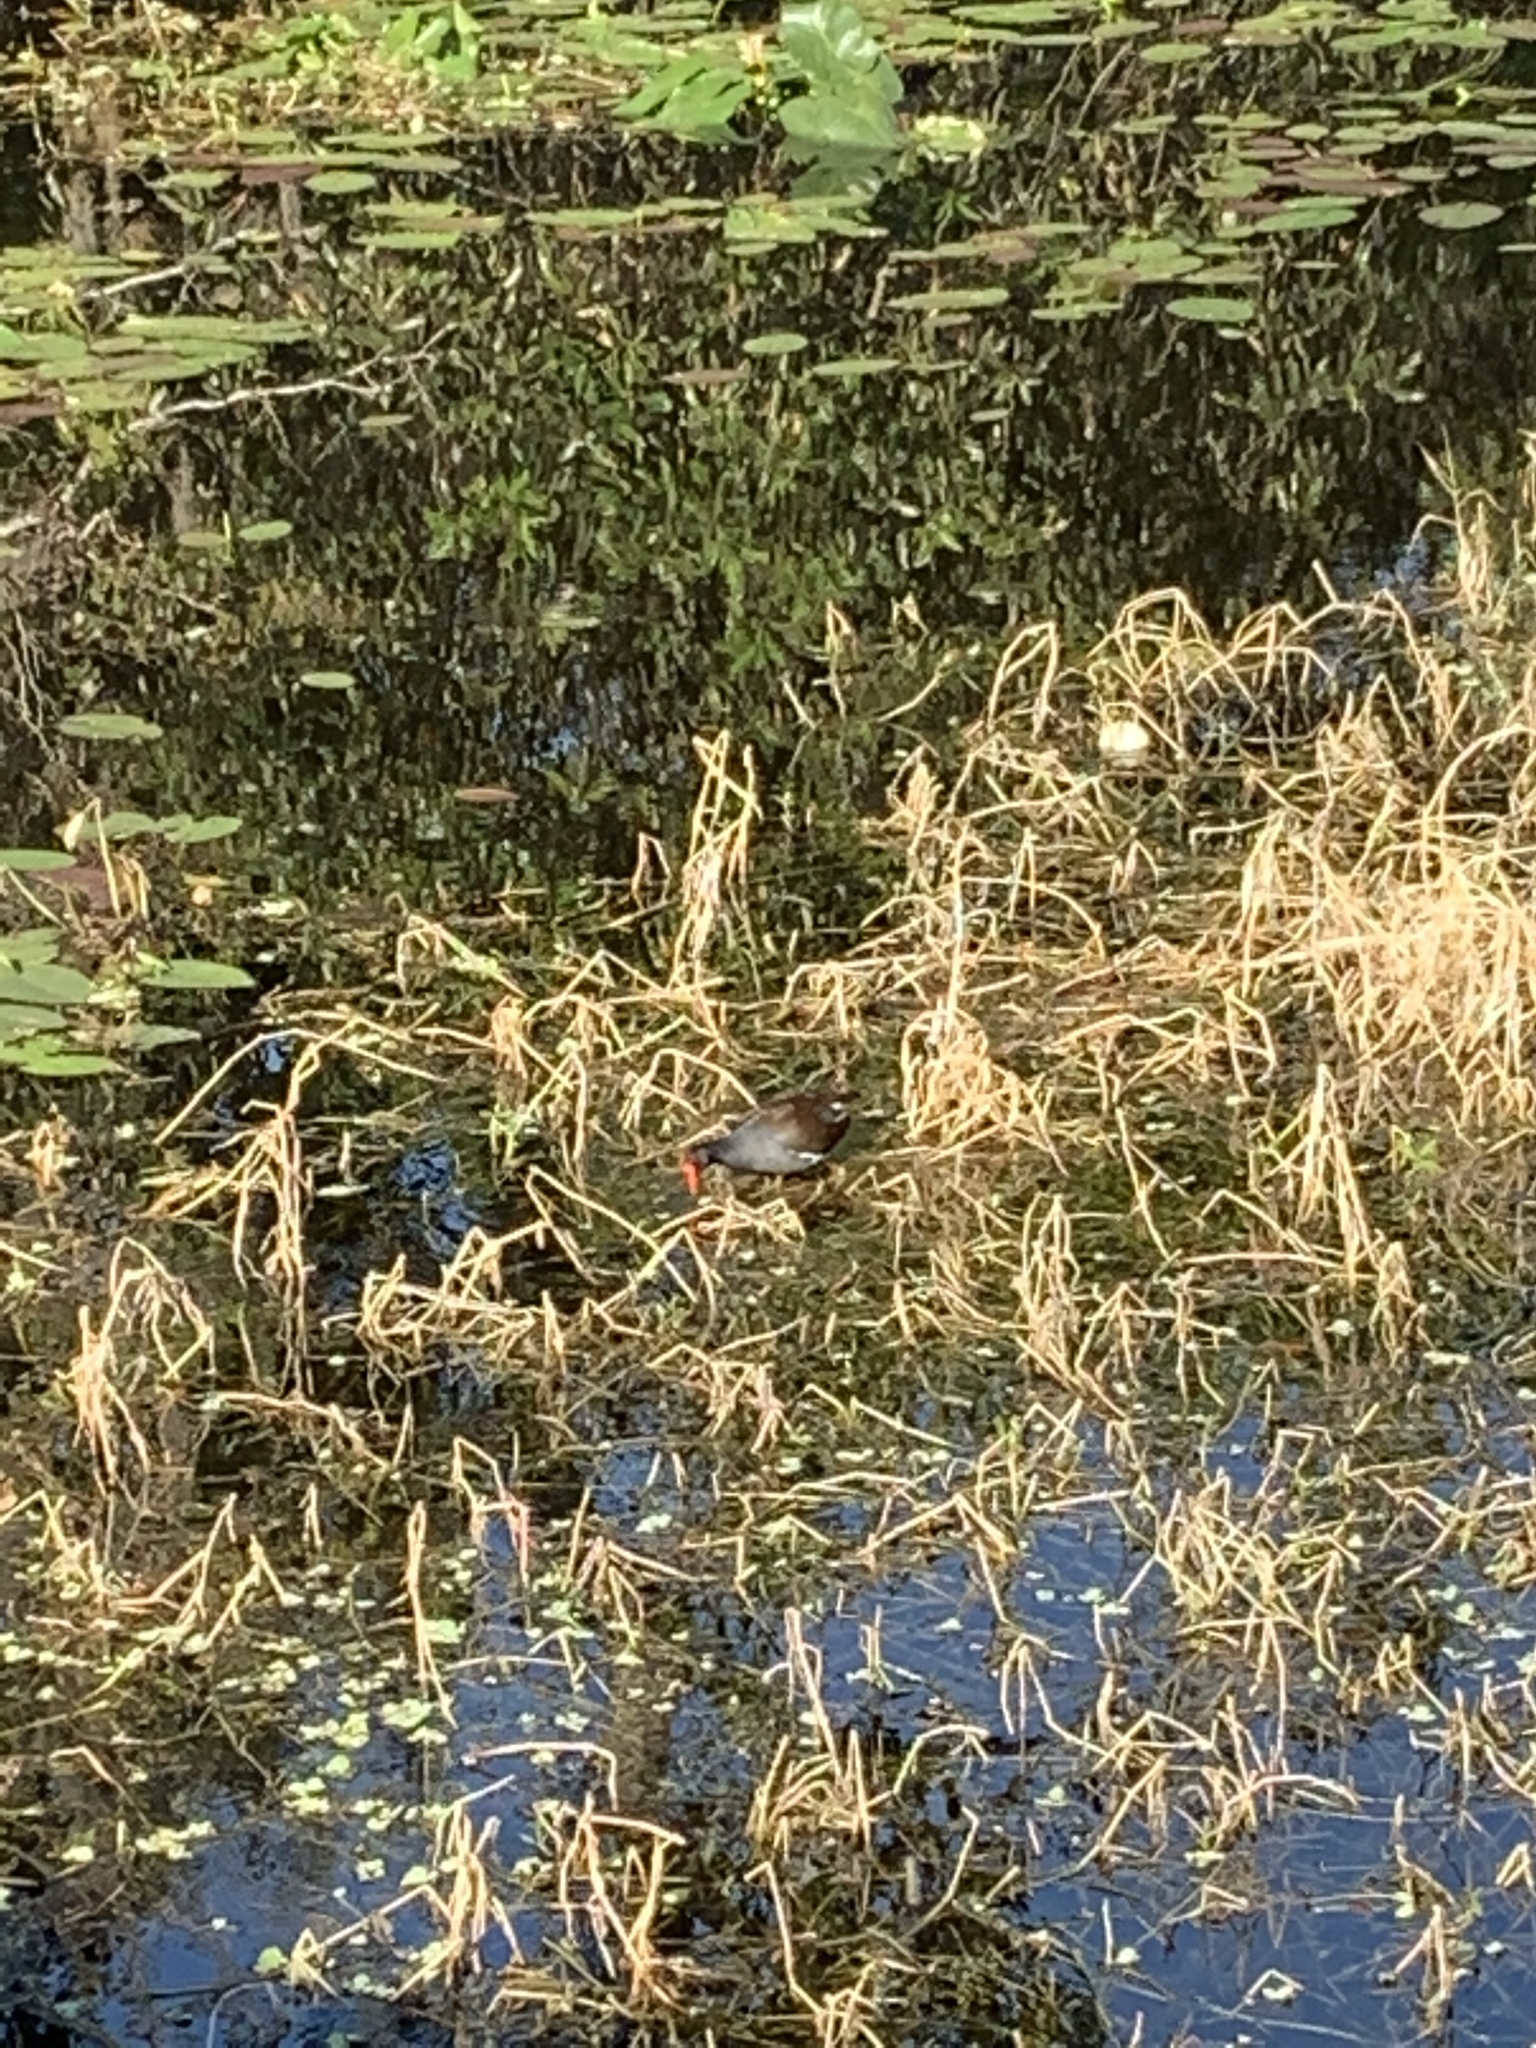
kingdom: Animalia
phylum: Chordata
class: Aves
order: Gruiformes
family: Rallidae
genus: Gallinula
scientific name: Gallinula chloropus
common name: Common moorhen
